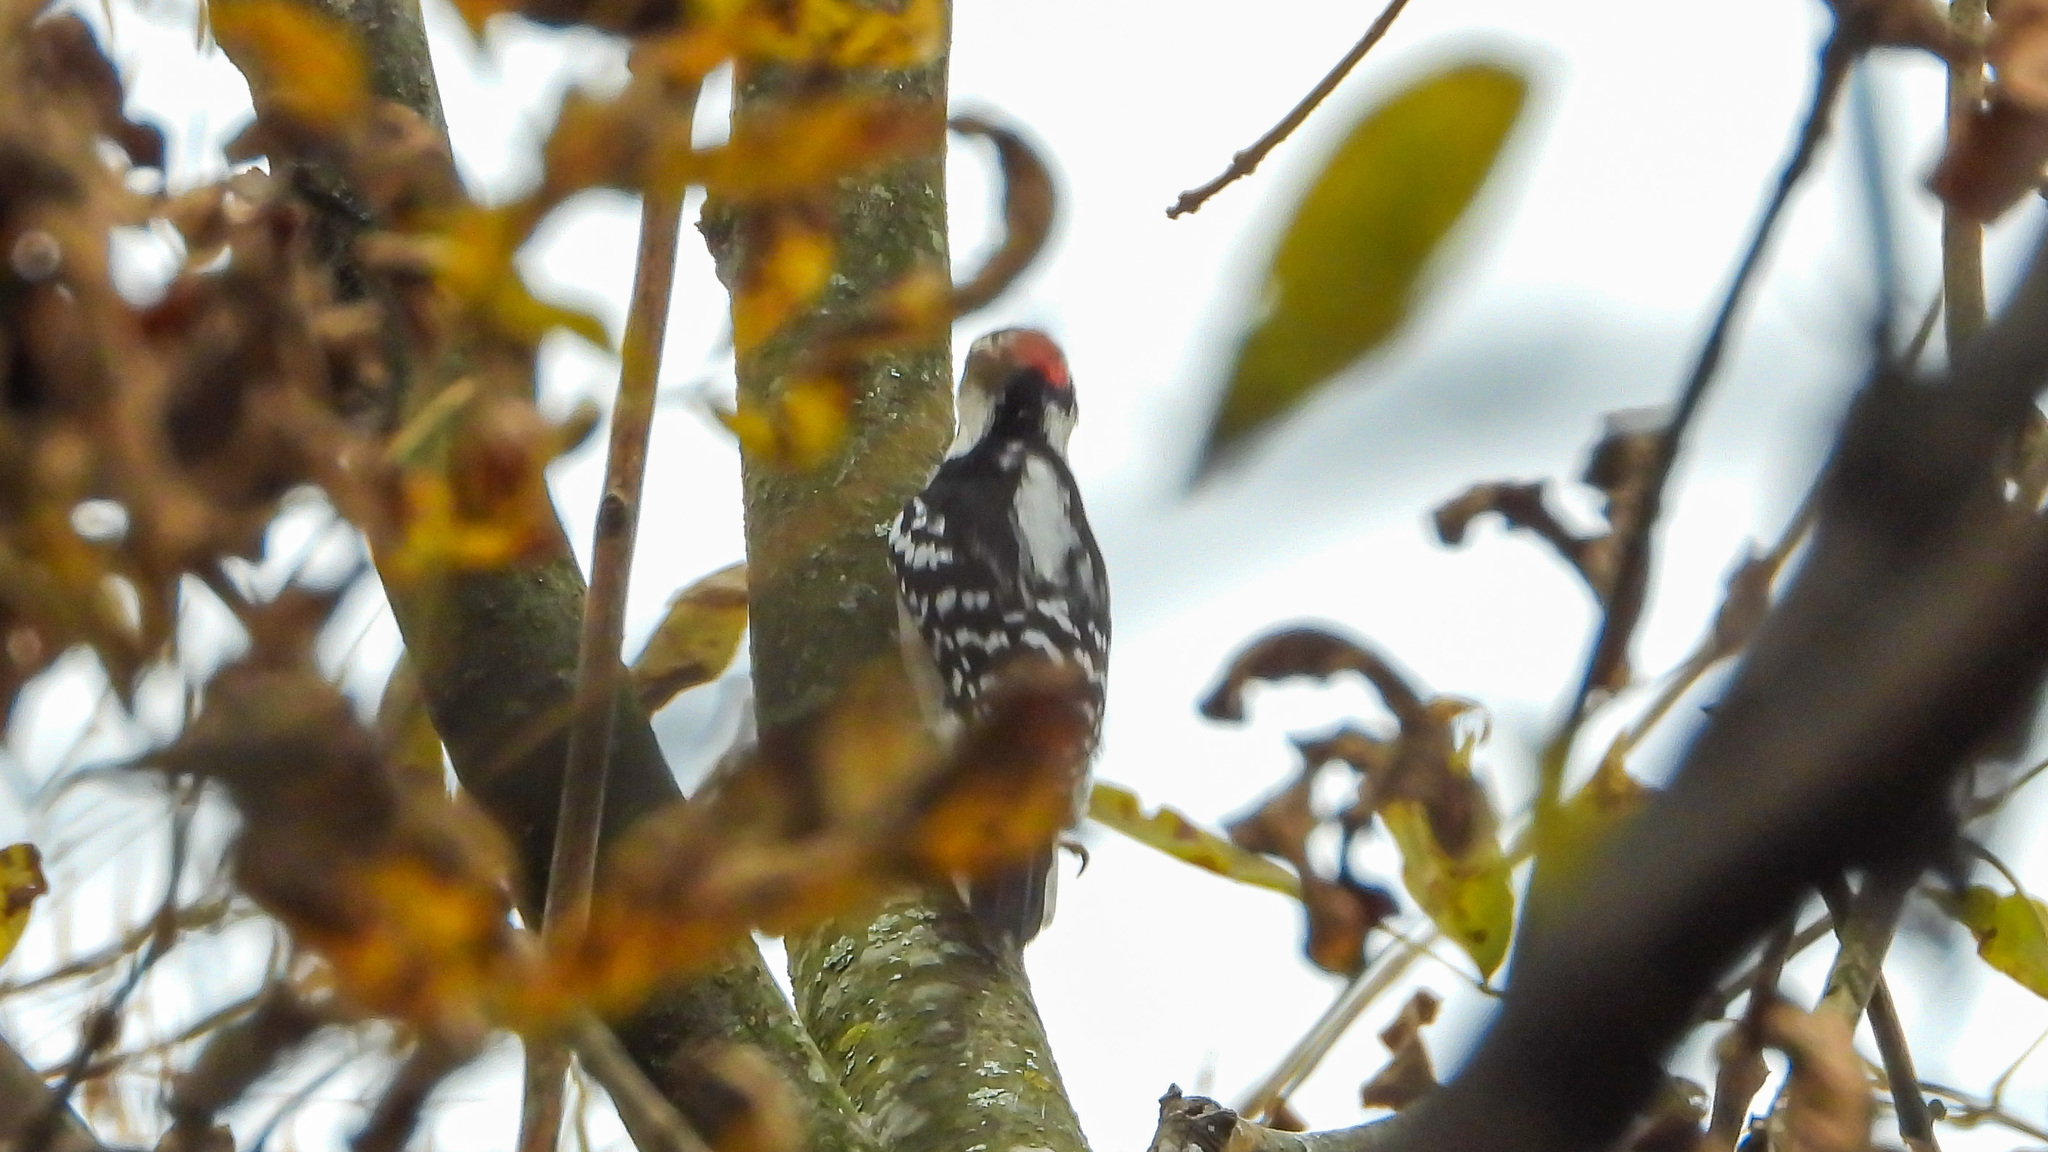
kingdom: Animalia
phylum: Chordata
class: Aves
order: Piciformes
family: Picidae
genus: Dryobates
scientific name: Dryobates pubescens
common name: Downy woodpecker
